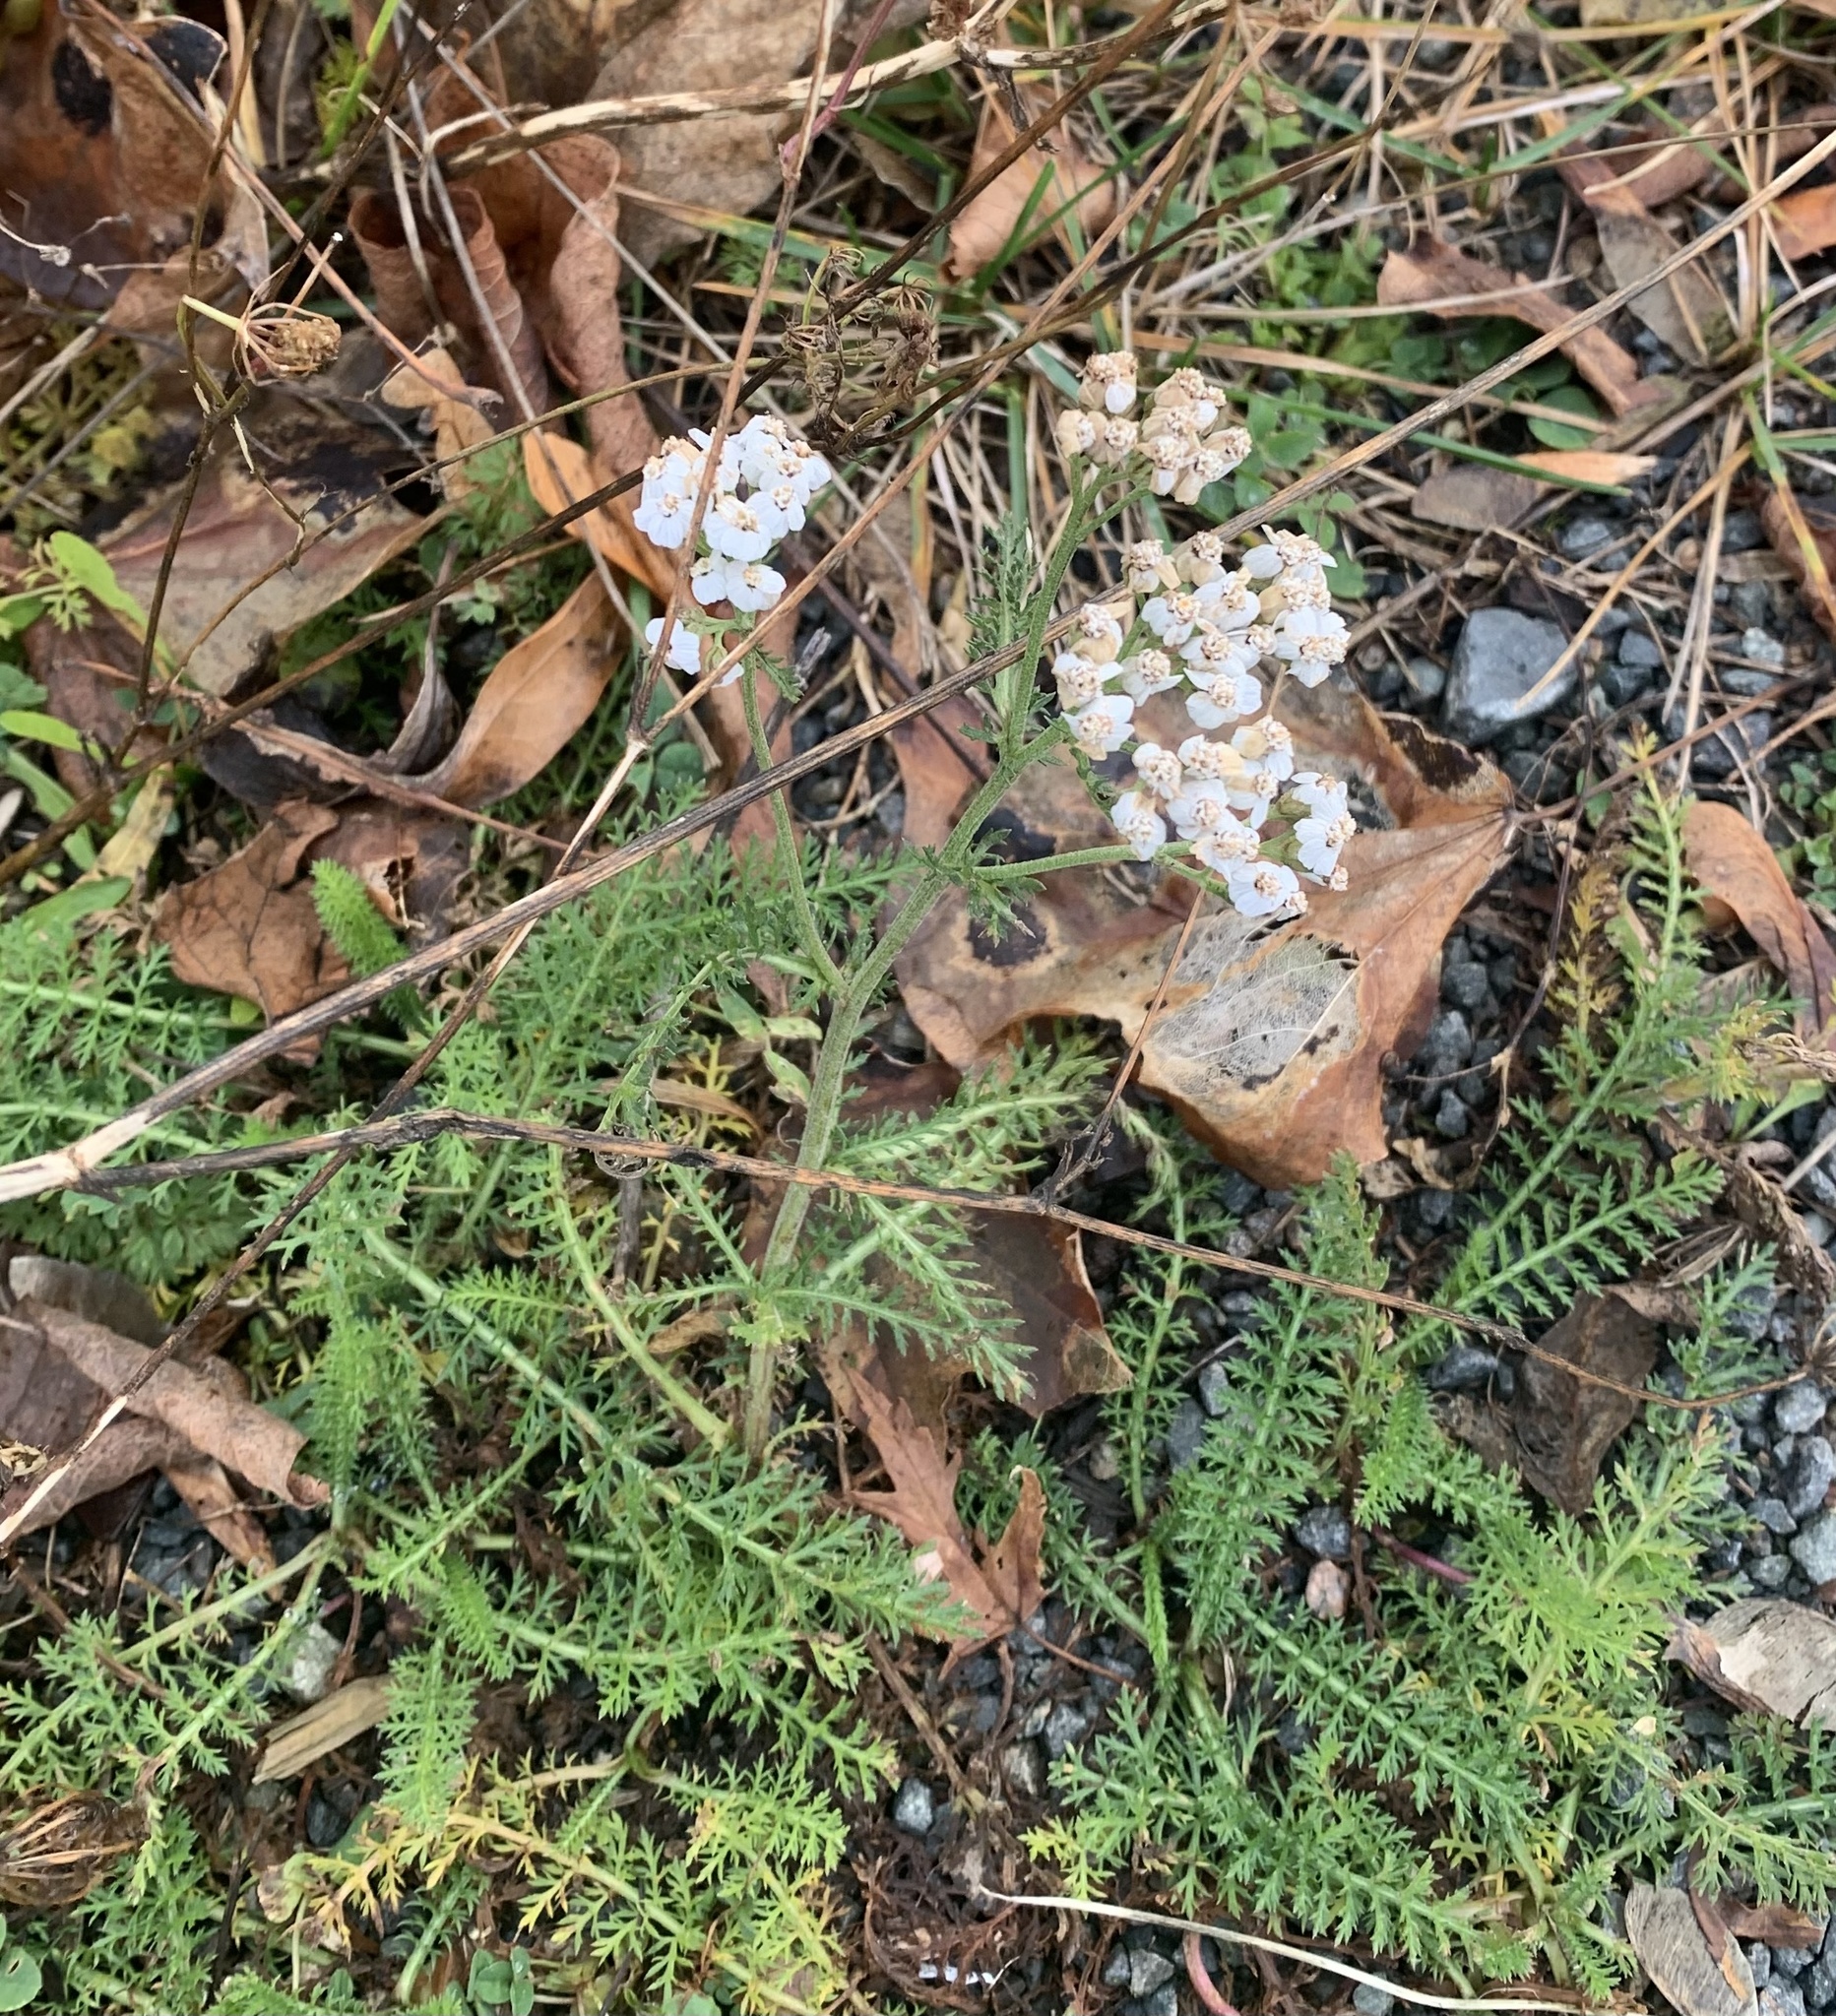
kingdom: Plantae
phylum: Tracheophyta
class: Magnoliopsida
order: Asterales
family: Asteraceae
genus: Achillea
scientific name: Achillea millefolium
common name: Yarrow
